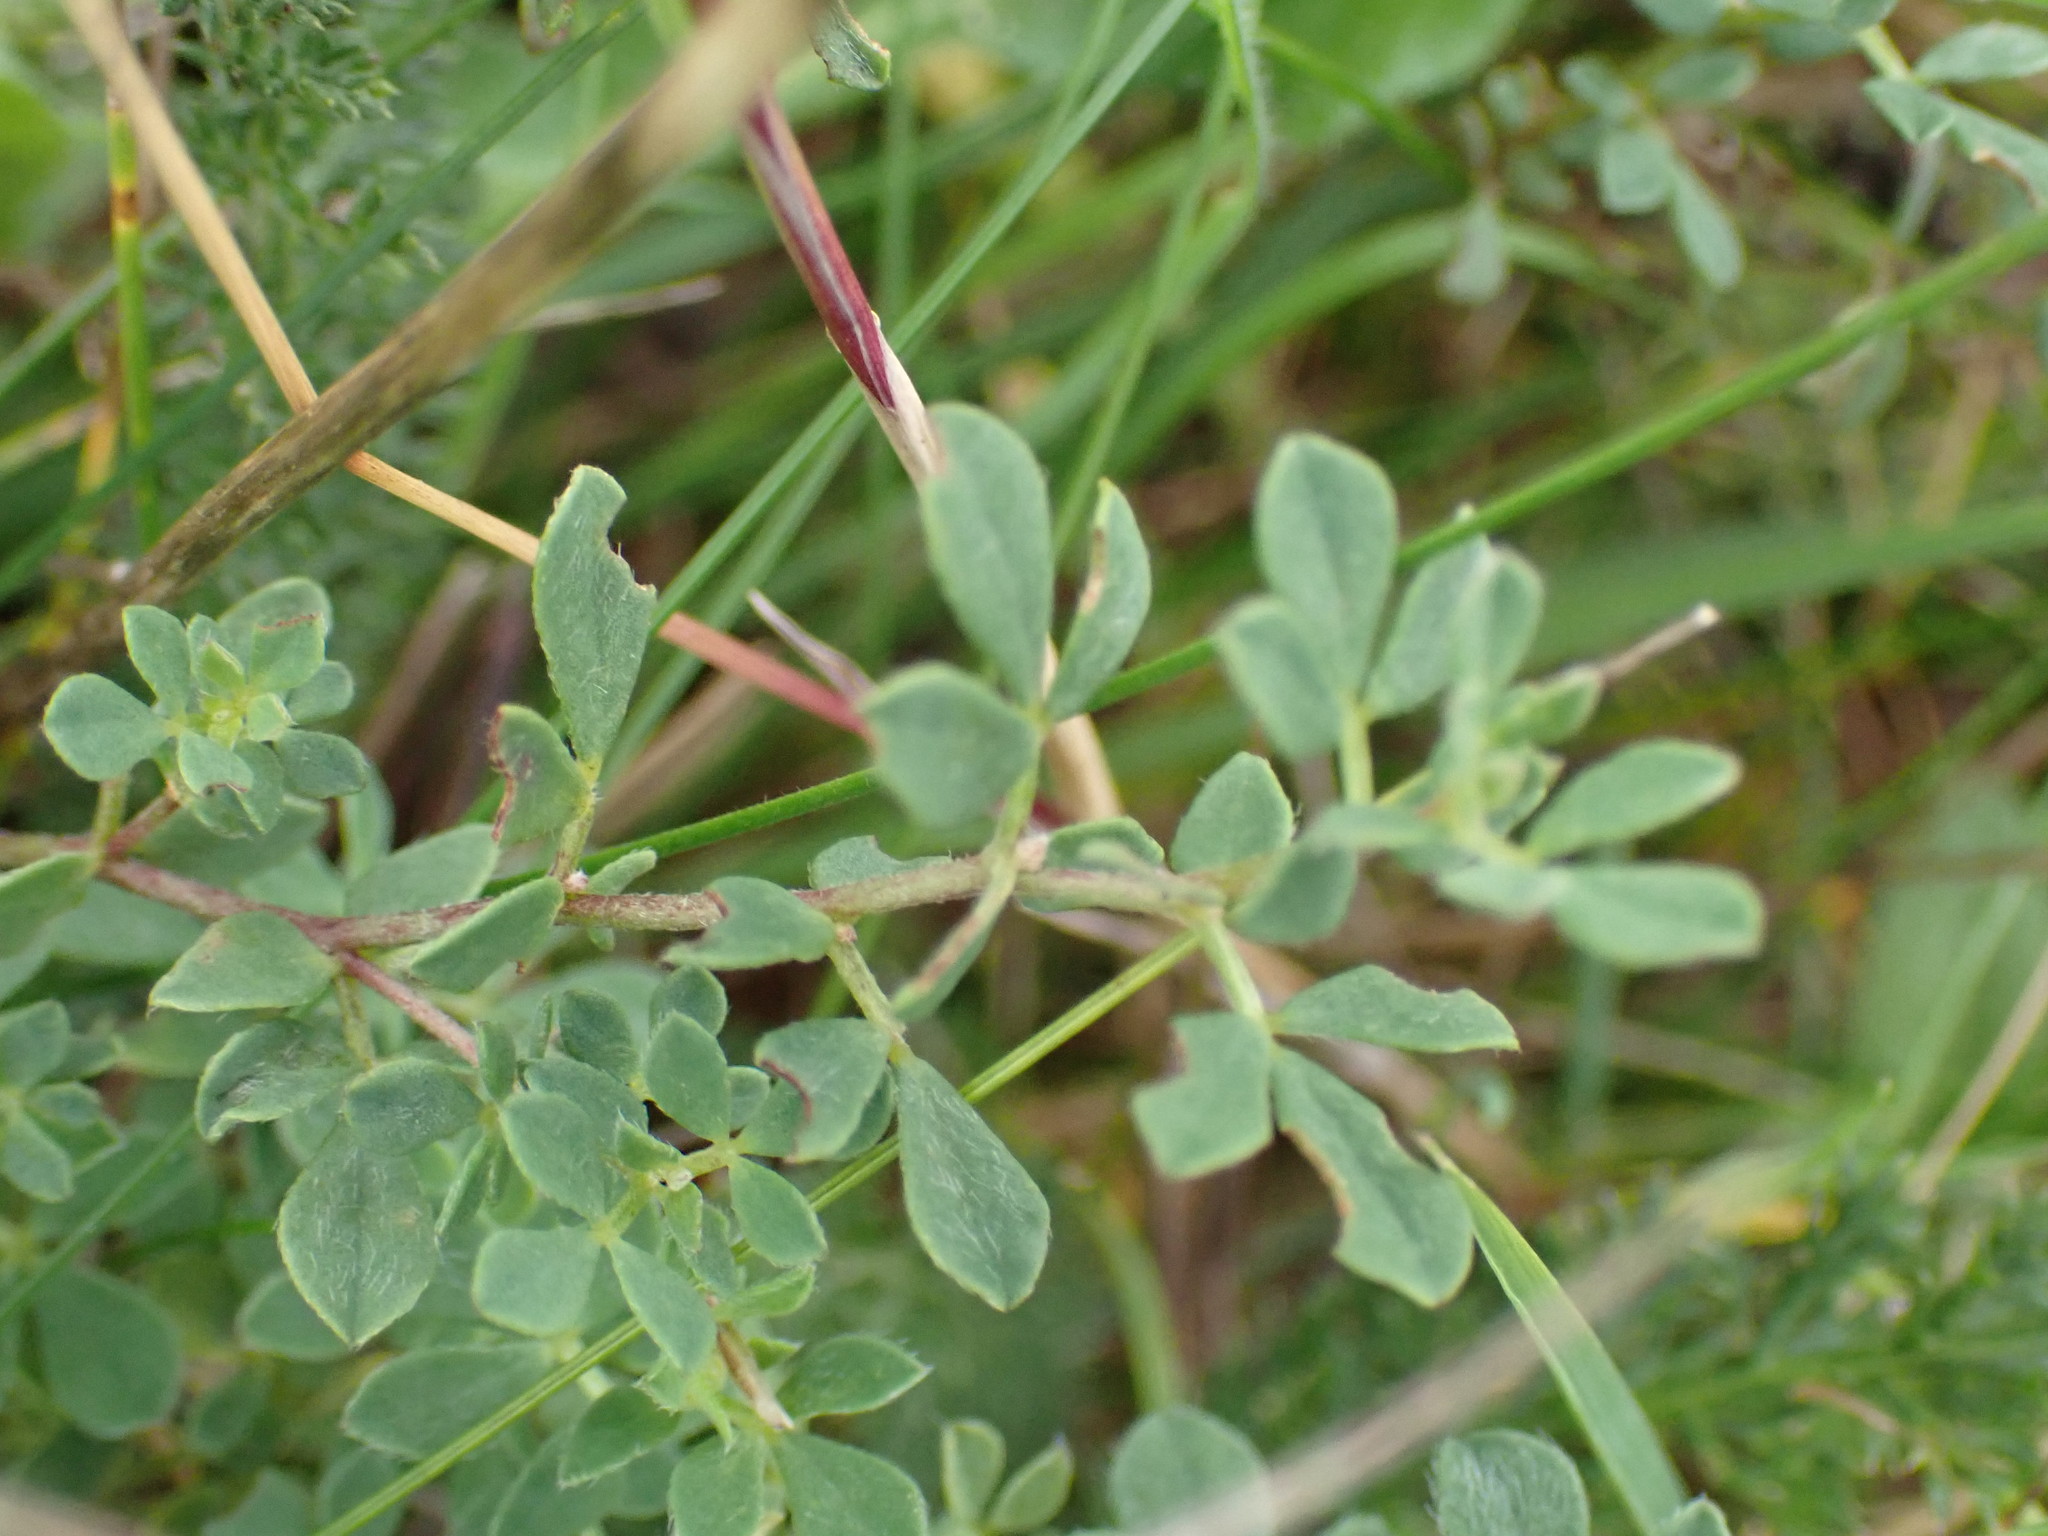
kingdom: Plantae
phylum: Tracheophyta
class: Magnoliopsida
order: Fabales
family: Fabaceae
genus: Lotus
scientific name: Lotus corniculatus
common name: Common bird's-foot-trefoil
